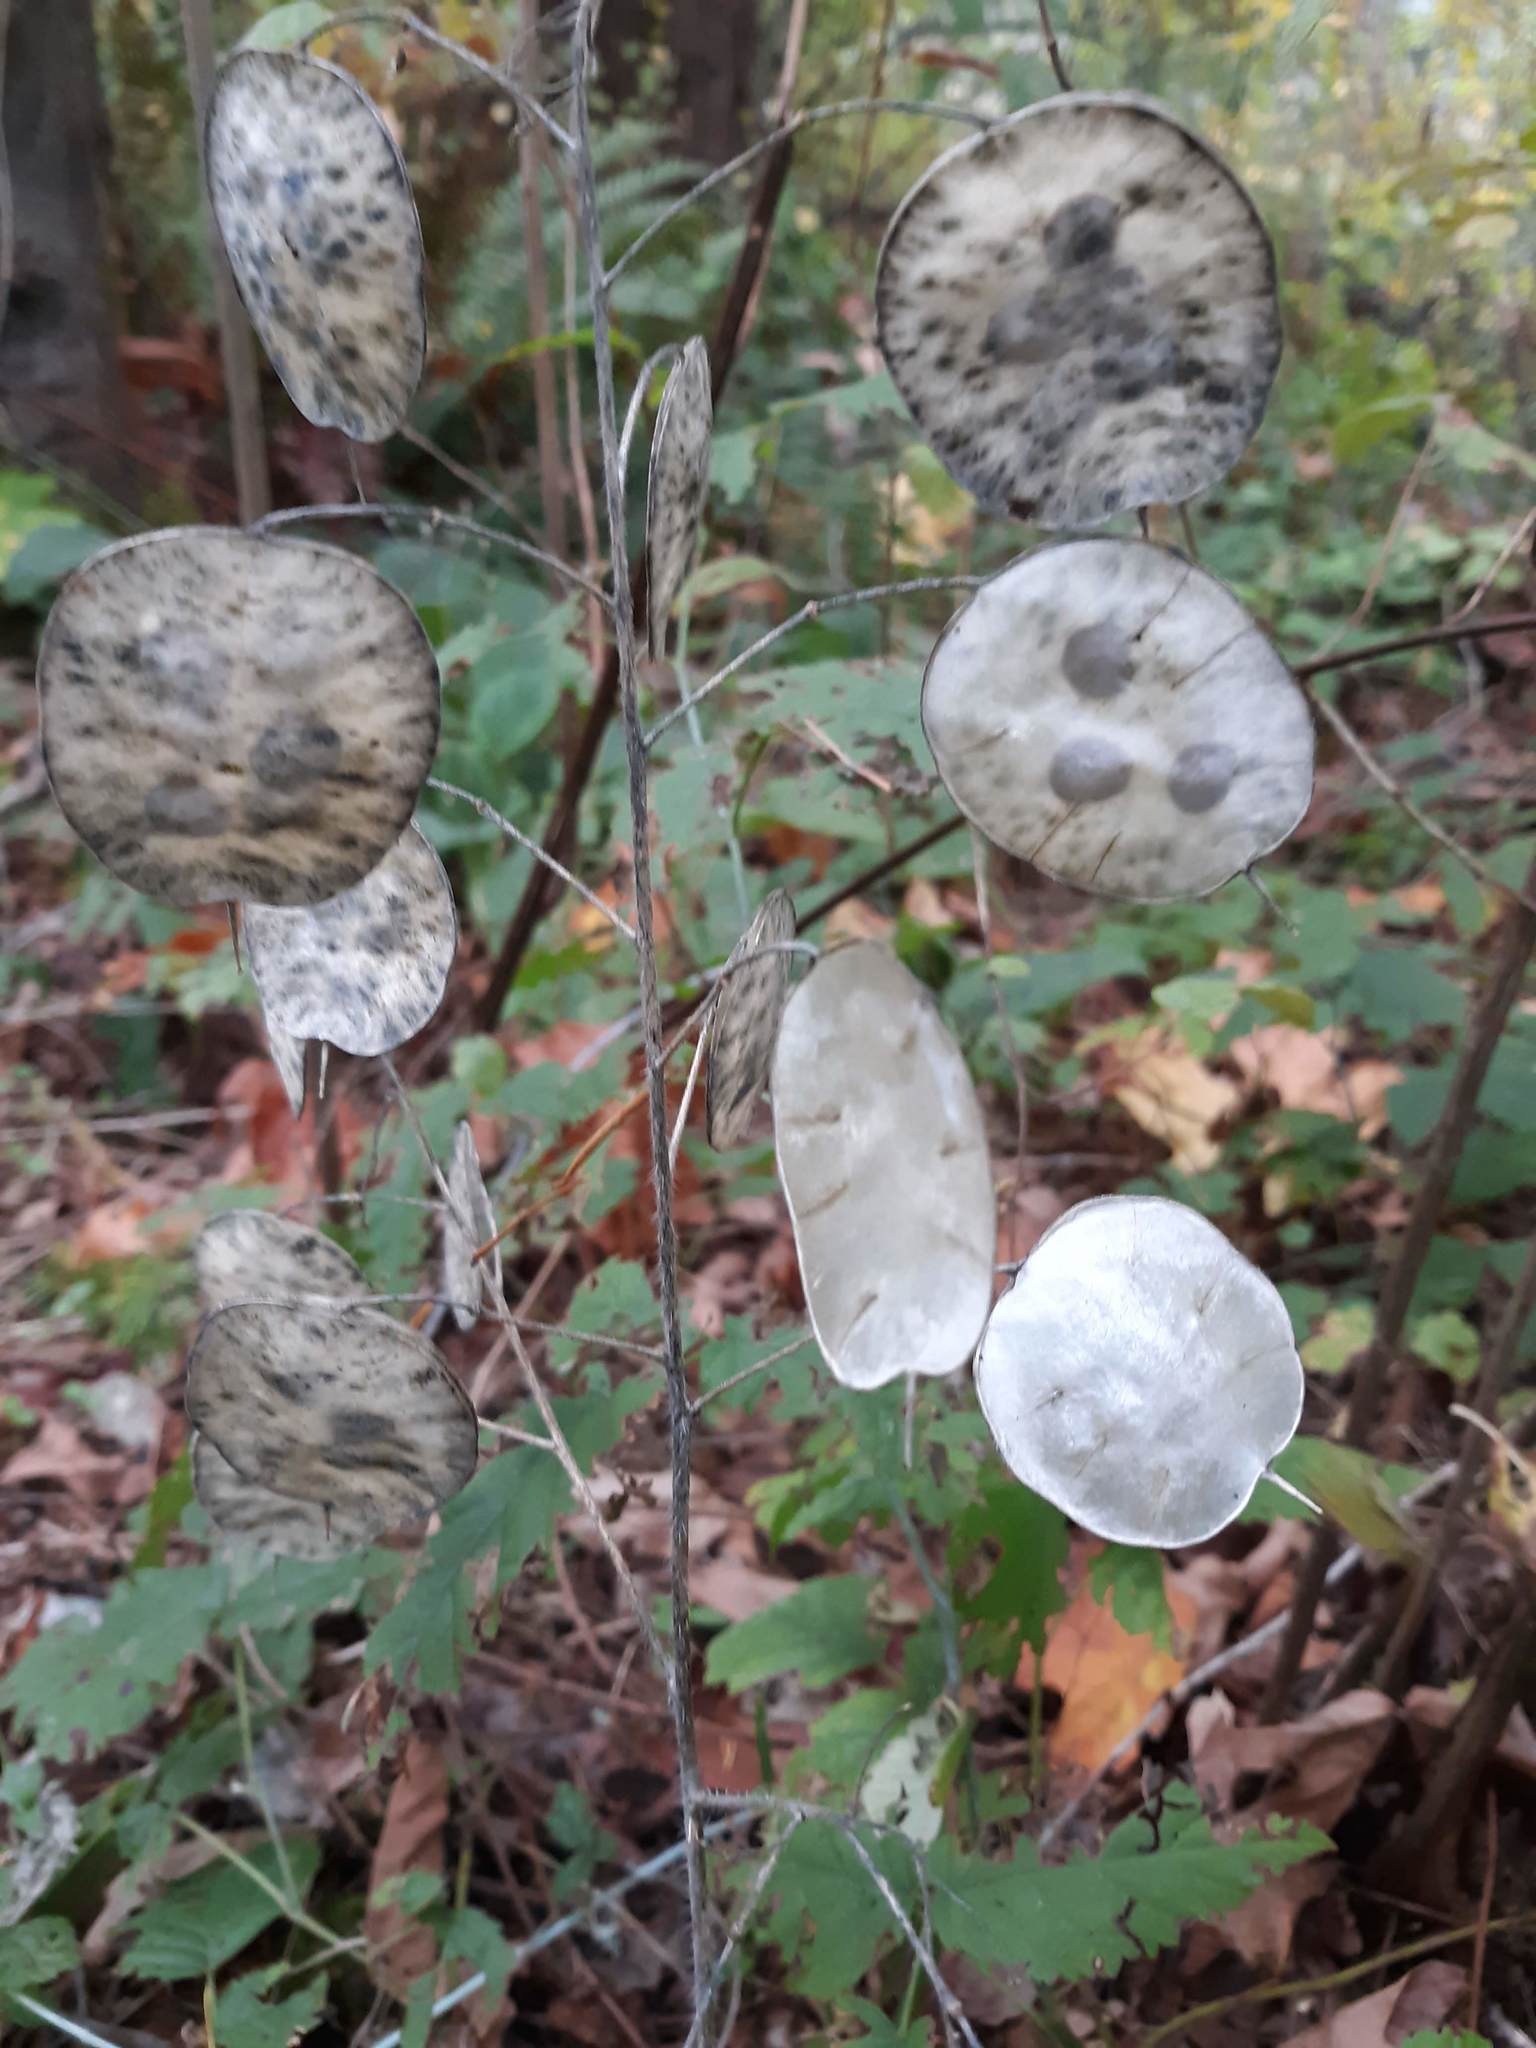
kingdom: Plantae
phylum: Tracheophyta
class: Magnoliopsida
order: Brassicales
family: Brassicaceae
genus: Lunaria
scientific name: Lunaria annua
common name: Honesty
